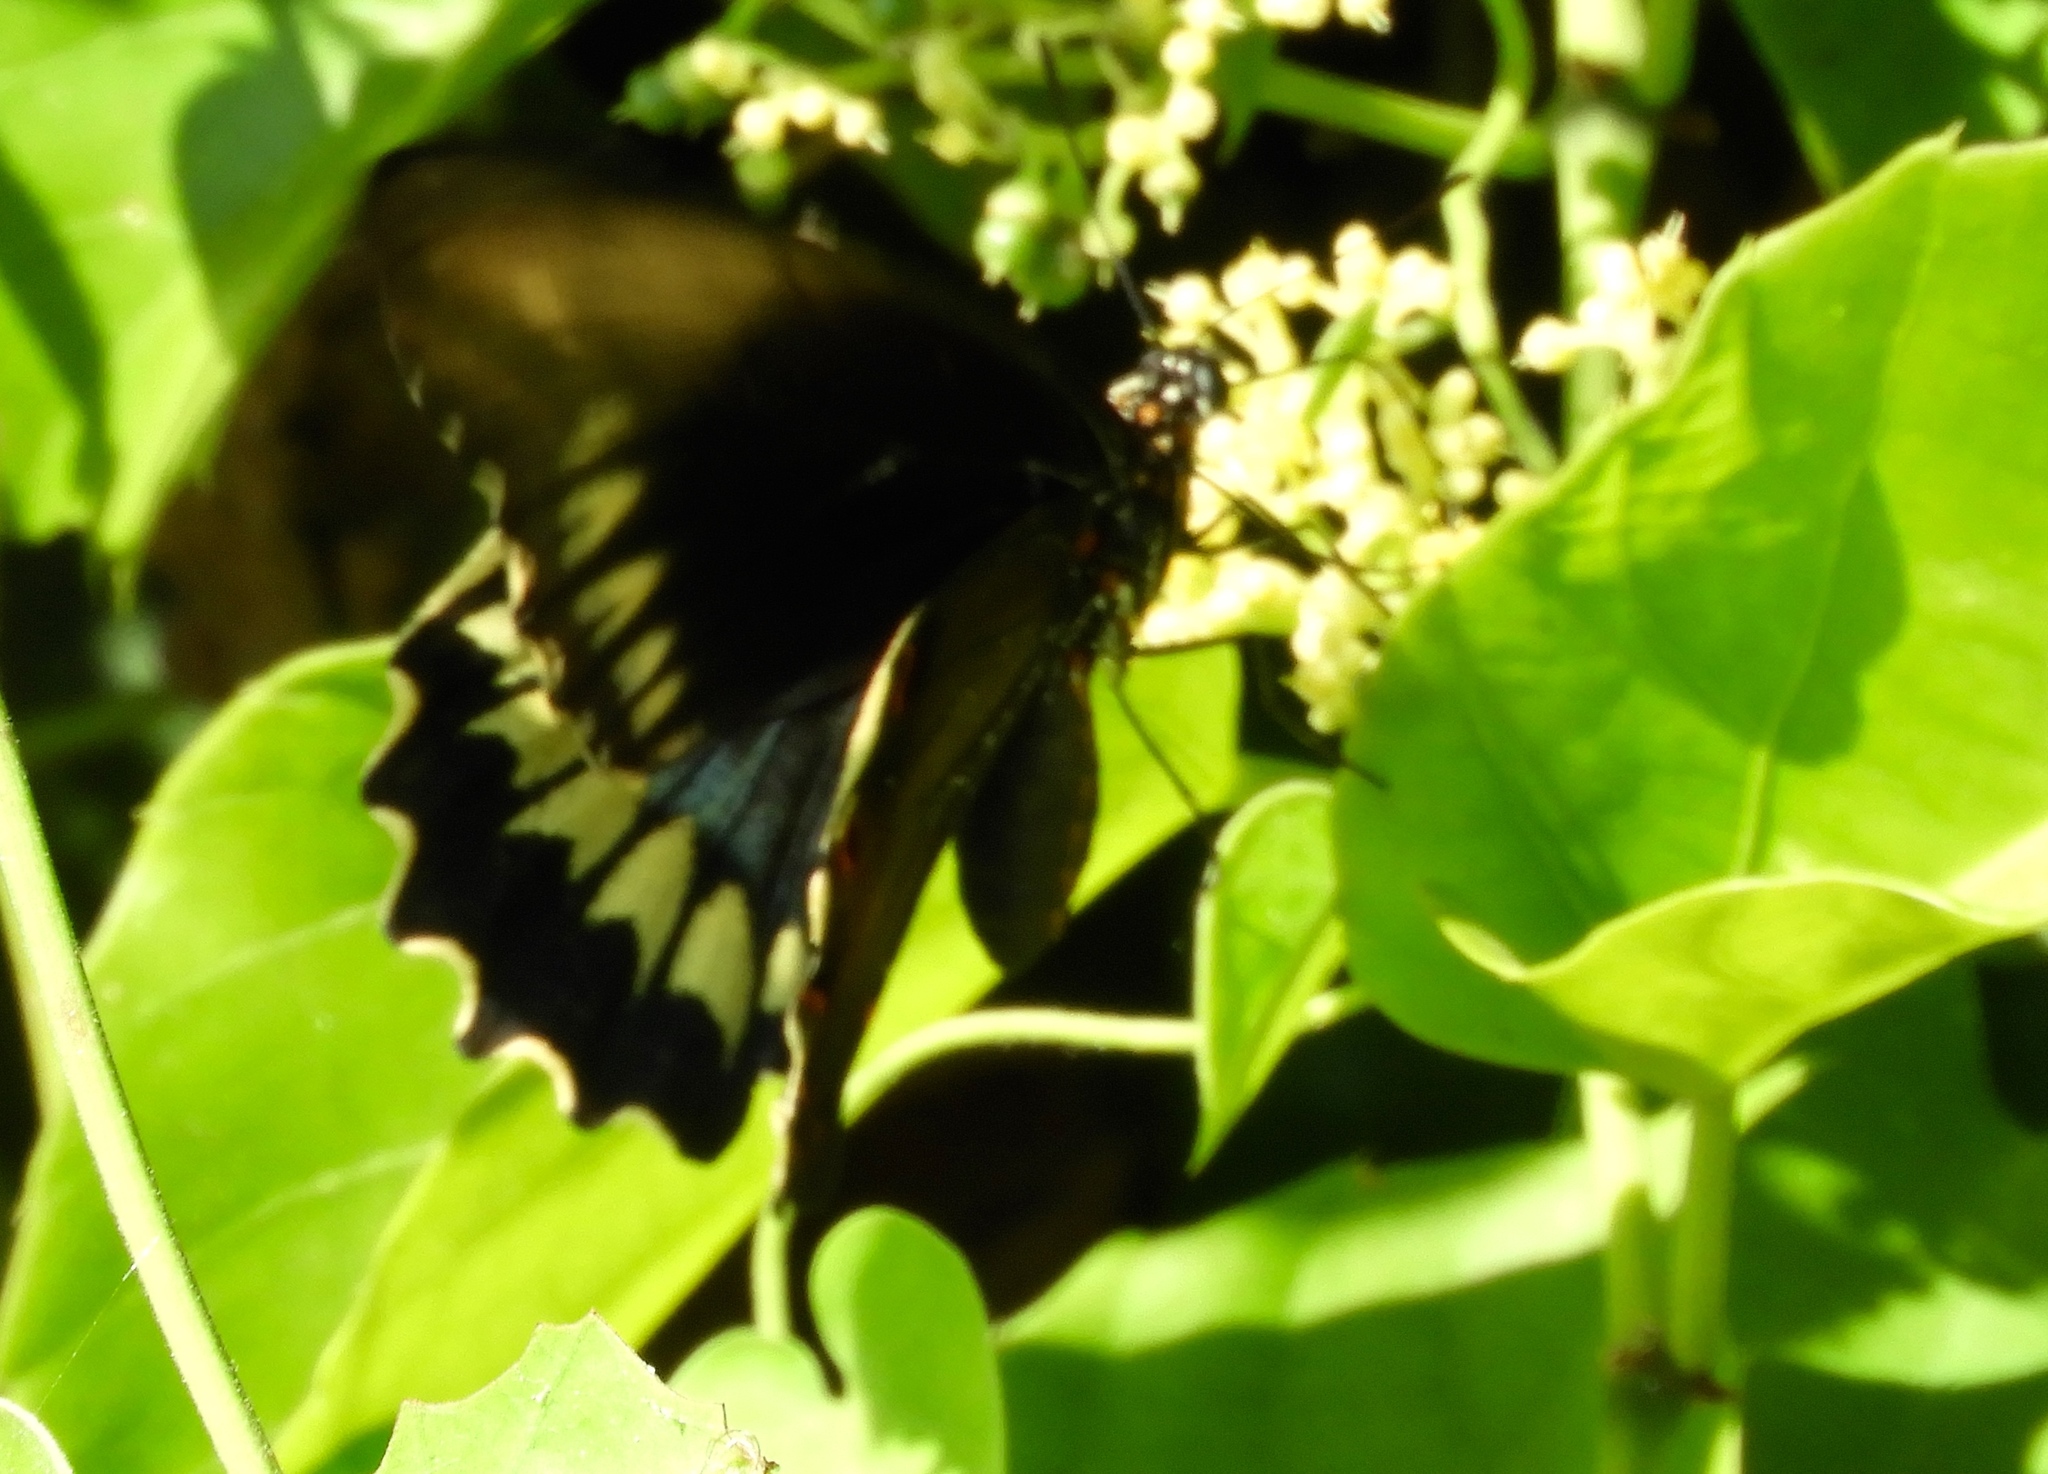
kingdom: Animalia
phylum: Arthropoda
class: Insecta
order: Lepidoptera
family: Papilionidae
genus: Battus
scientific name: Battus polydamas
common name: Polydamas swallowtail
